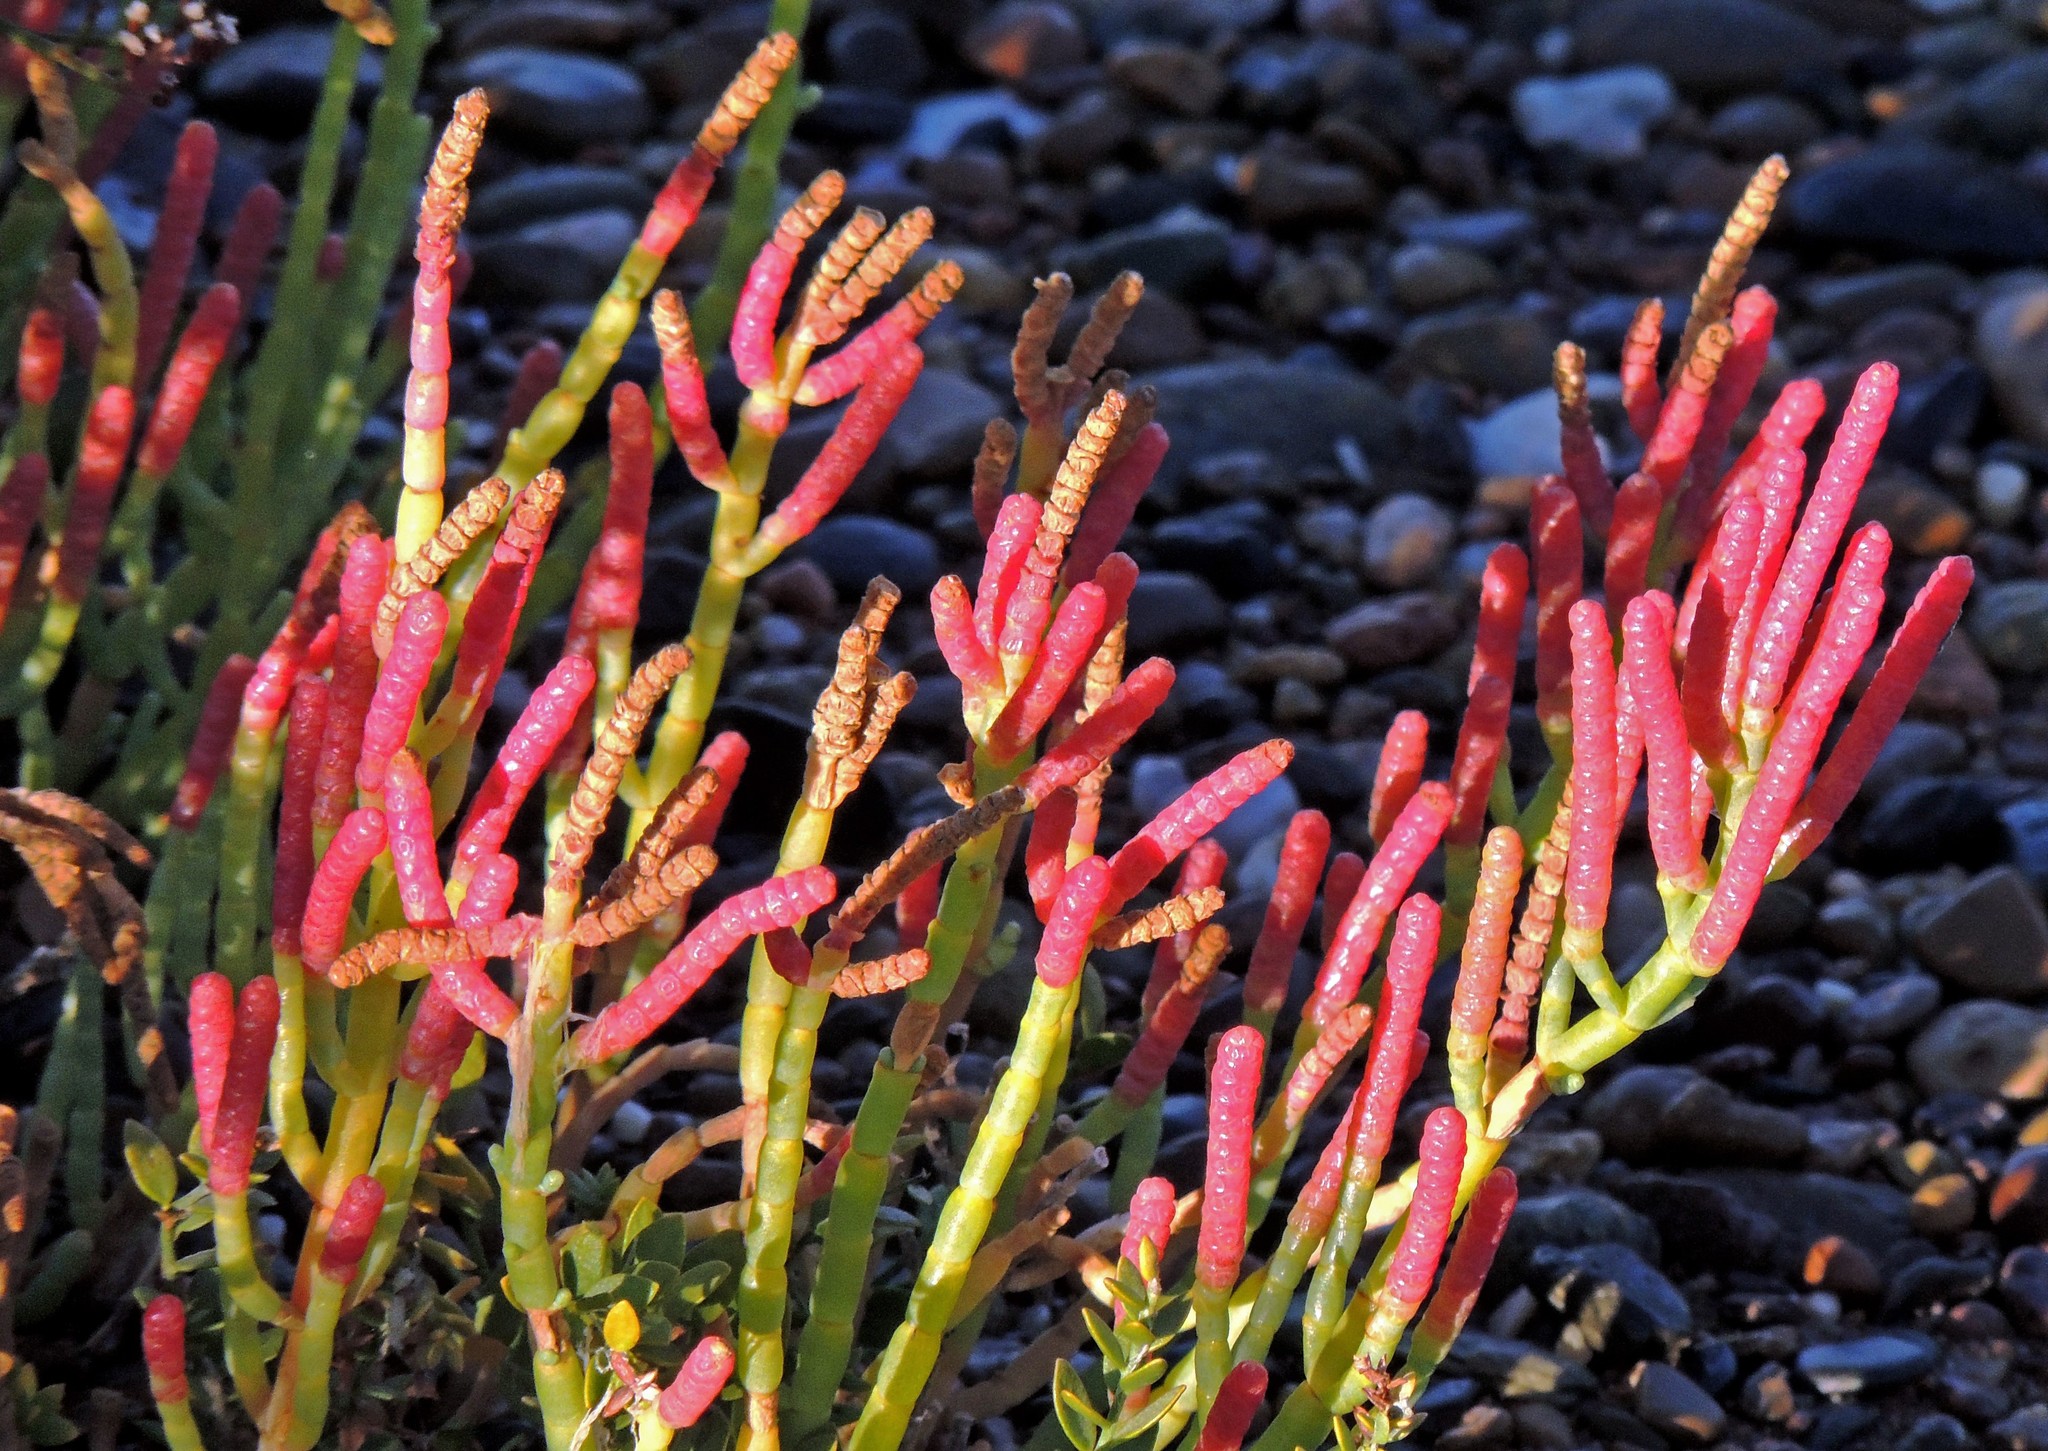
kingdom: Plantae
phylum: Tracheophyta
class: Magnoliopsida
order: Caryophyllales
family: Amaranthaceae
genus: Salicornia
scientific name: Salicornia perennis
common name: Chicken claws
